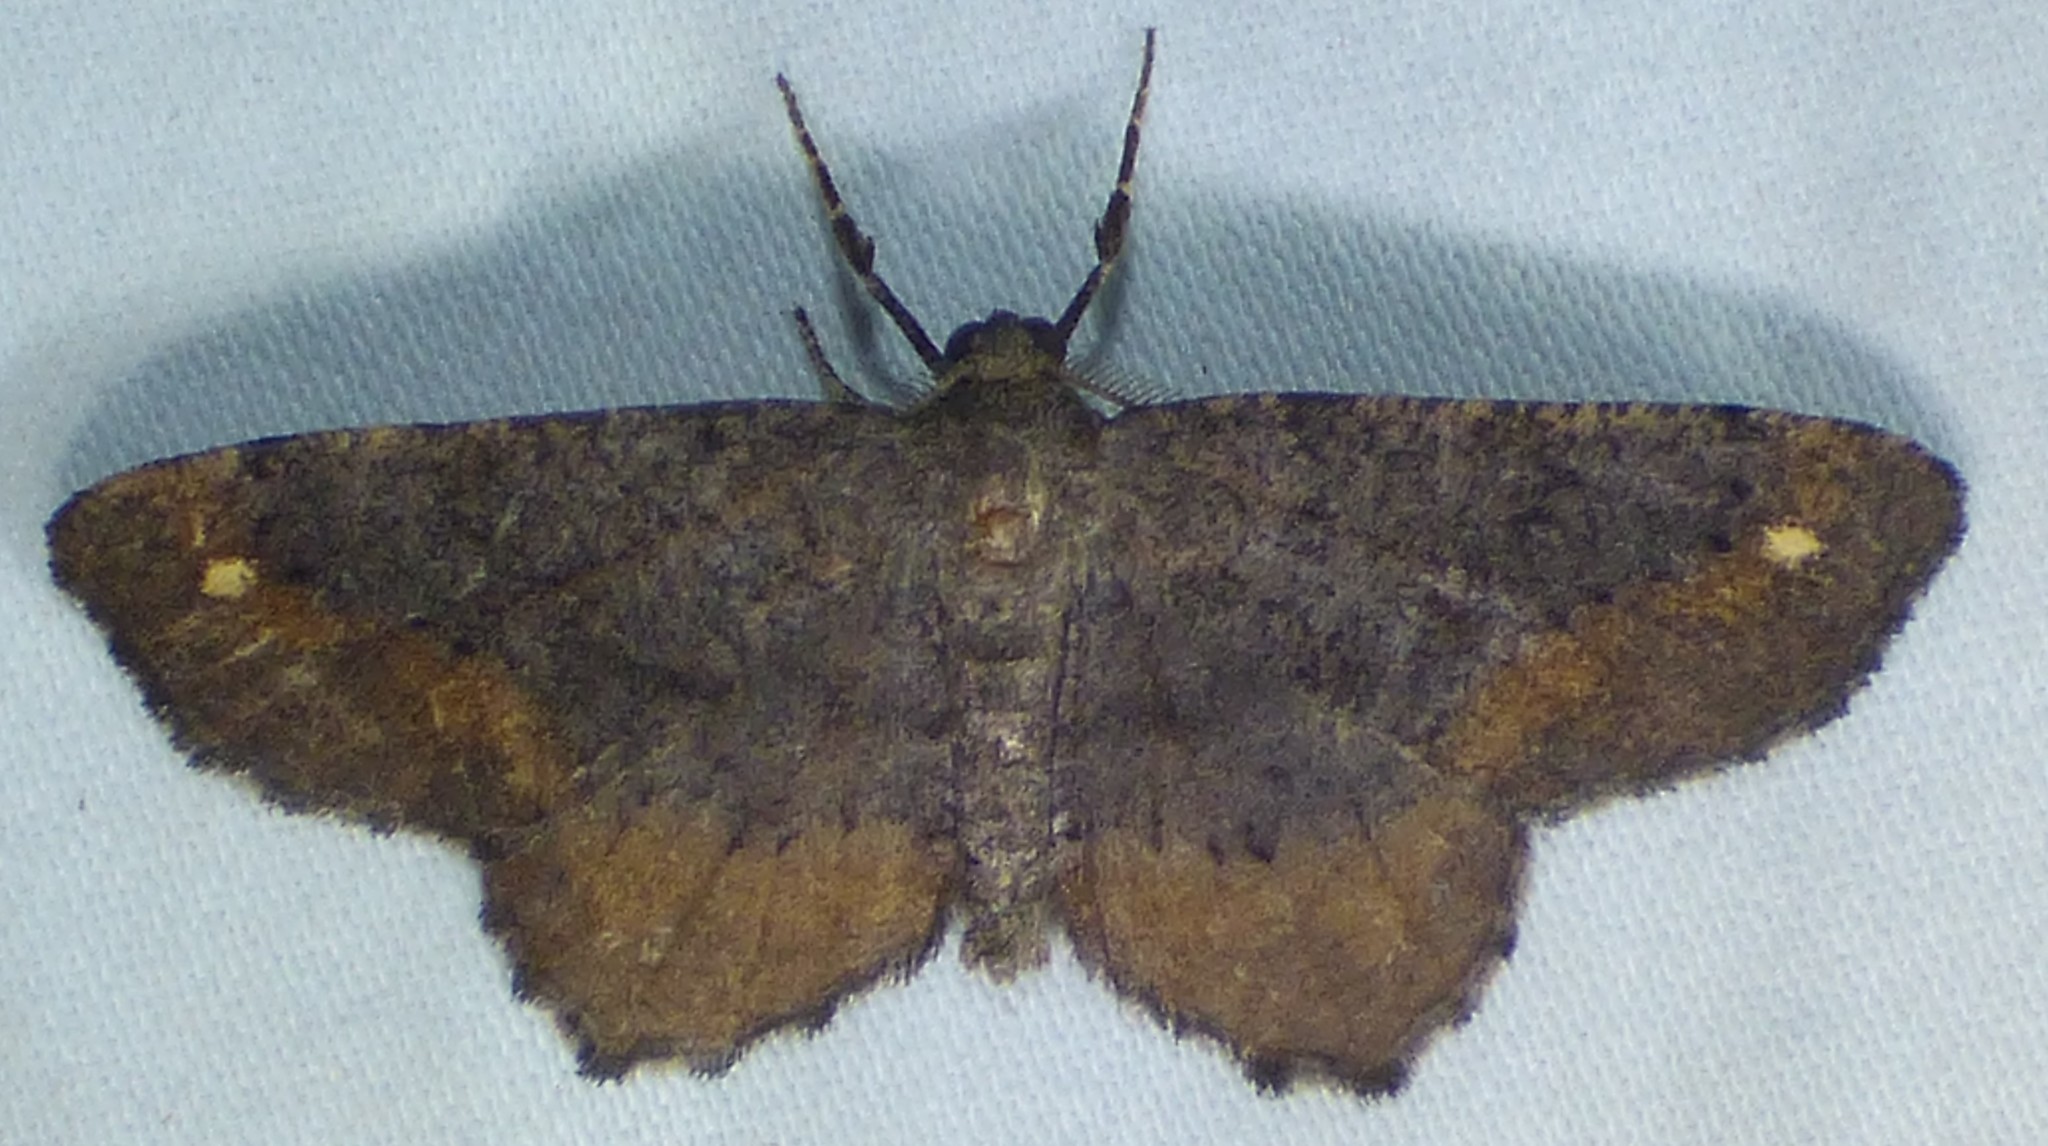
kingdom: Animalia
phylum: Arthropoda
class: Insecta
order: Lepidoptera
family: Geometridae
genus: Hypagyrtis
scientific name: Hypagyrtis esther
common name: Esther moth
